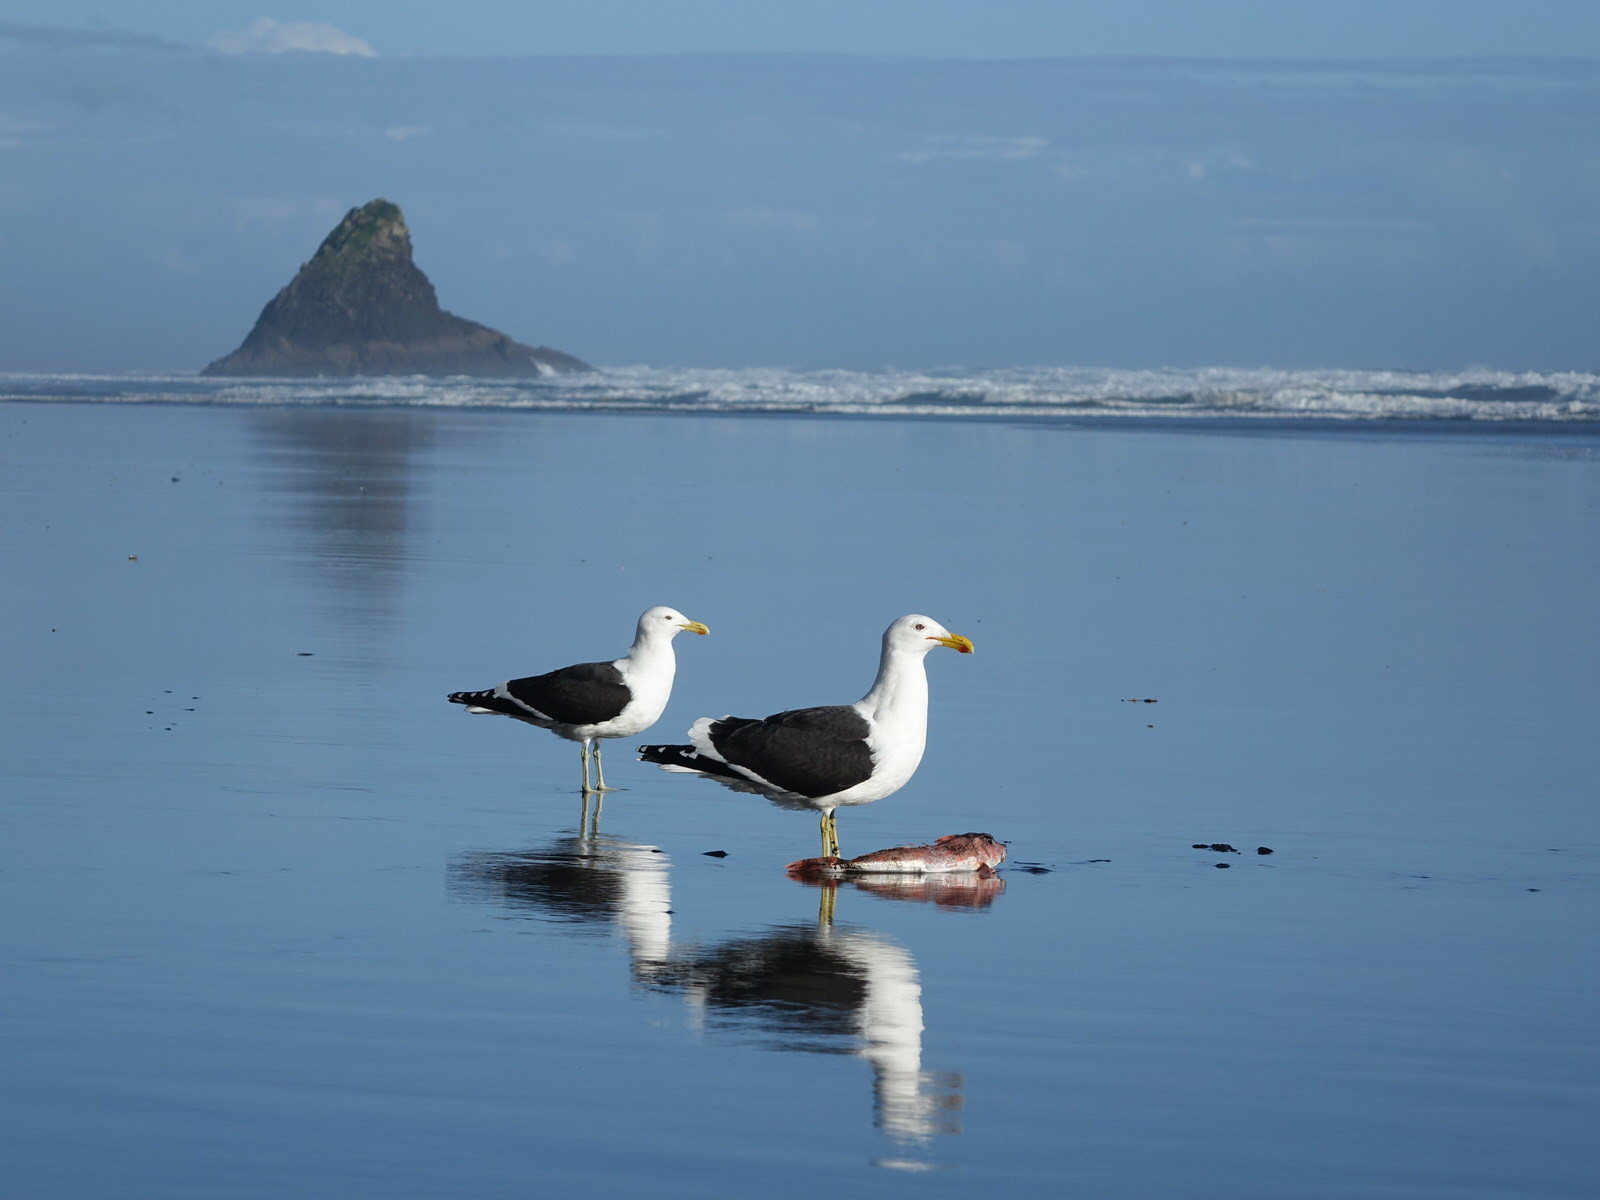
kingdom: Animalia
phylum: Chordata
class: Aves
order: Charadriiformes
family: Laridae
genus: Larus
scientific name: Larus dominicanus
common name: Kelp gull
